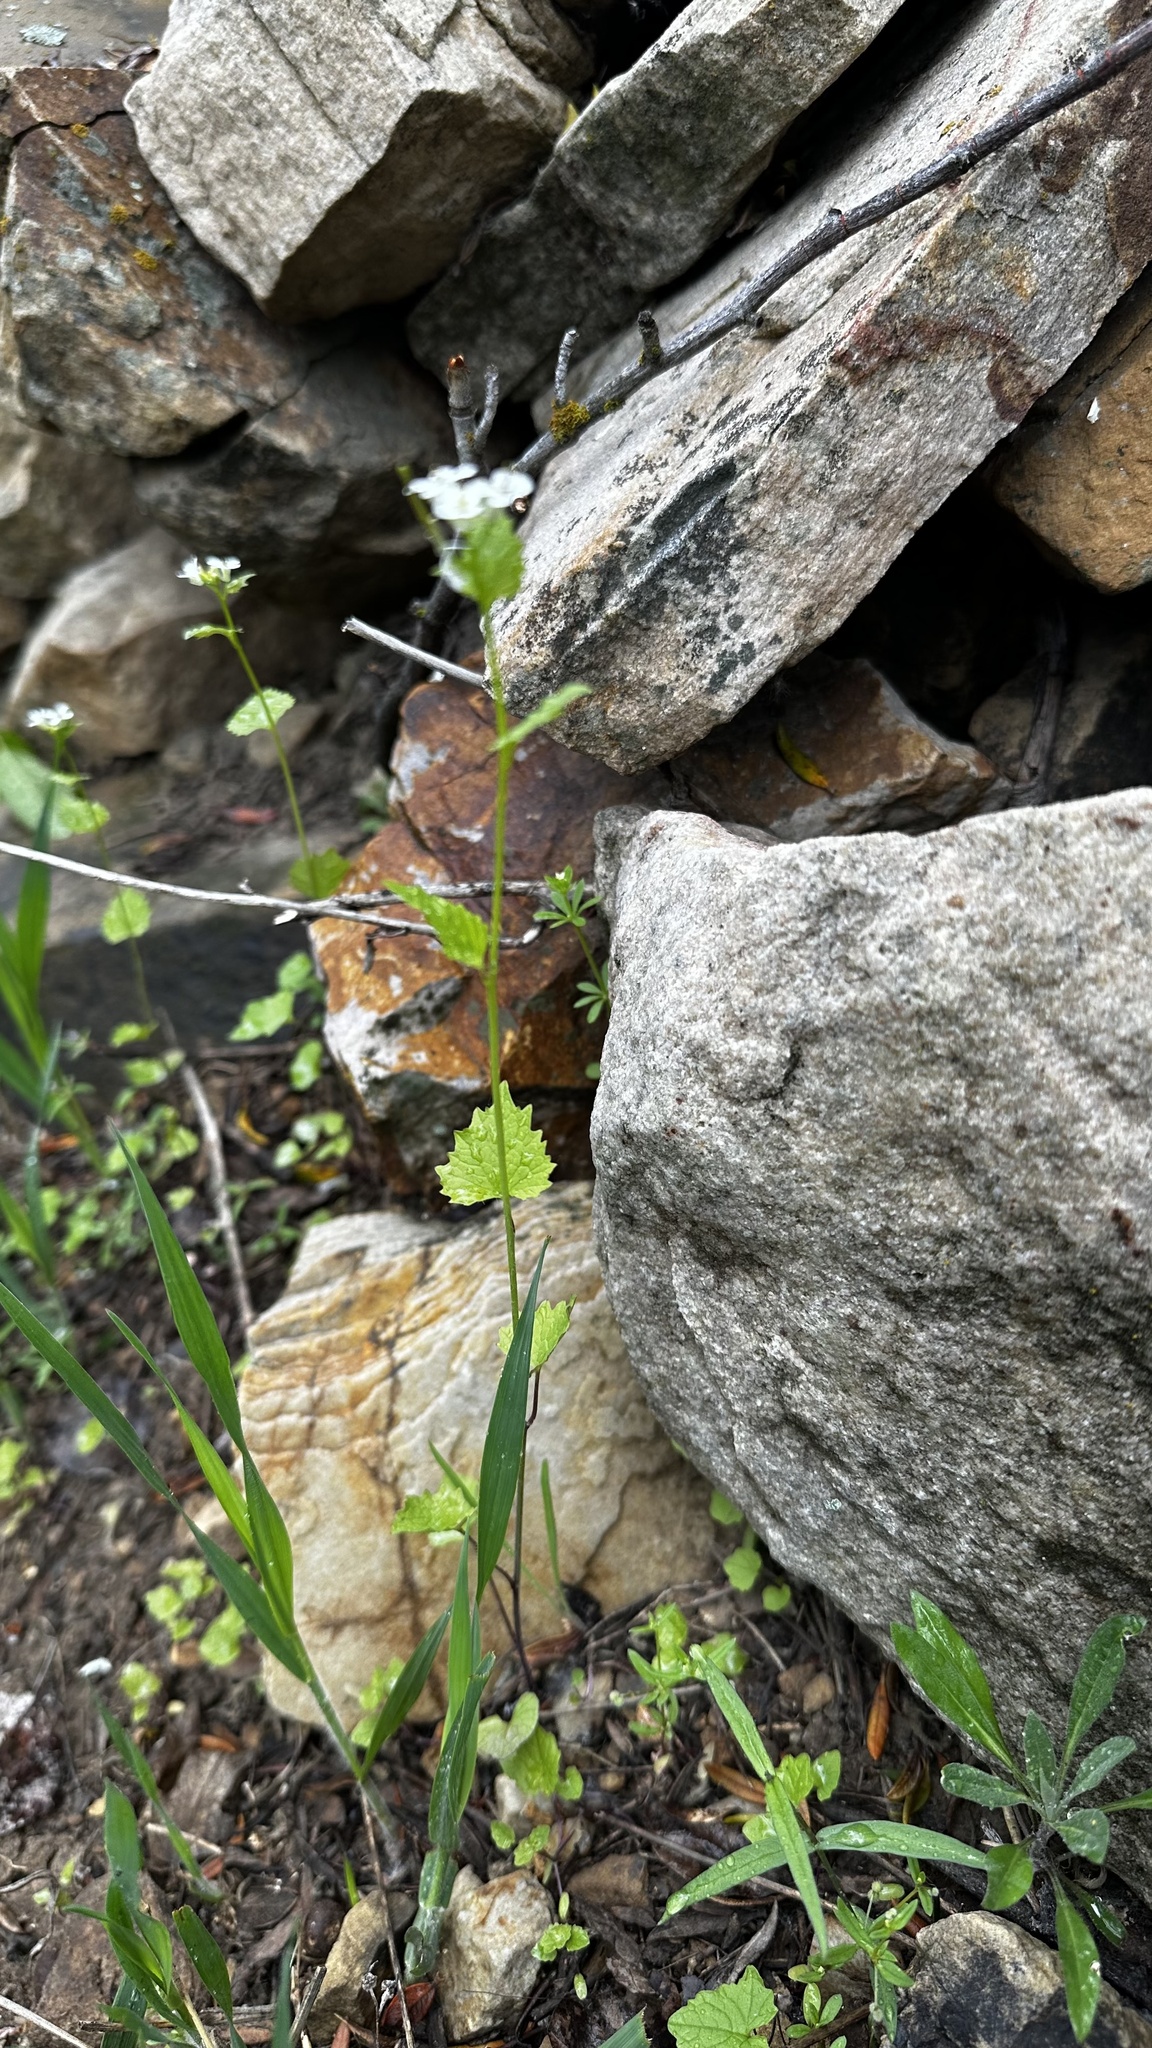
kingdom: Plantae
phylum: Tracheophyta
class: Magnoliopsida
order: Brassicales
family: Brassicaceae
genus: Alliaria
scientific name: Alliaria petiolata
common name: Garlic mustard
